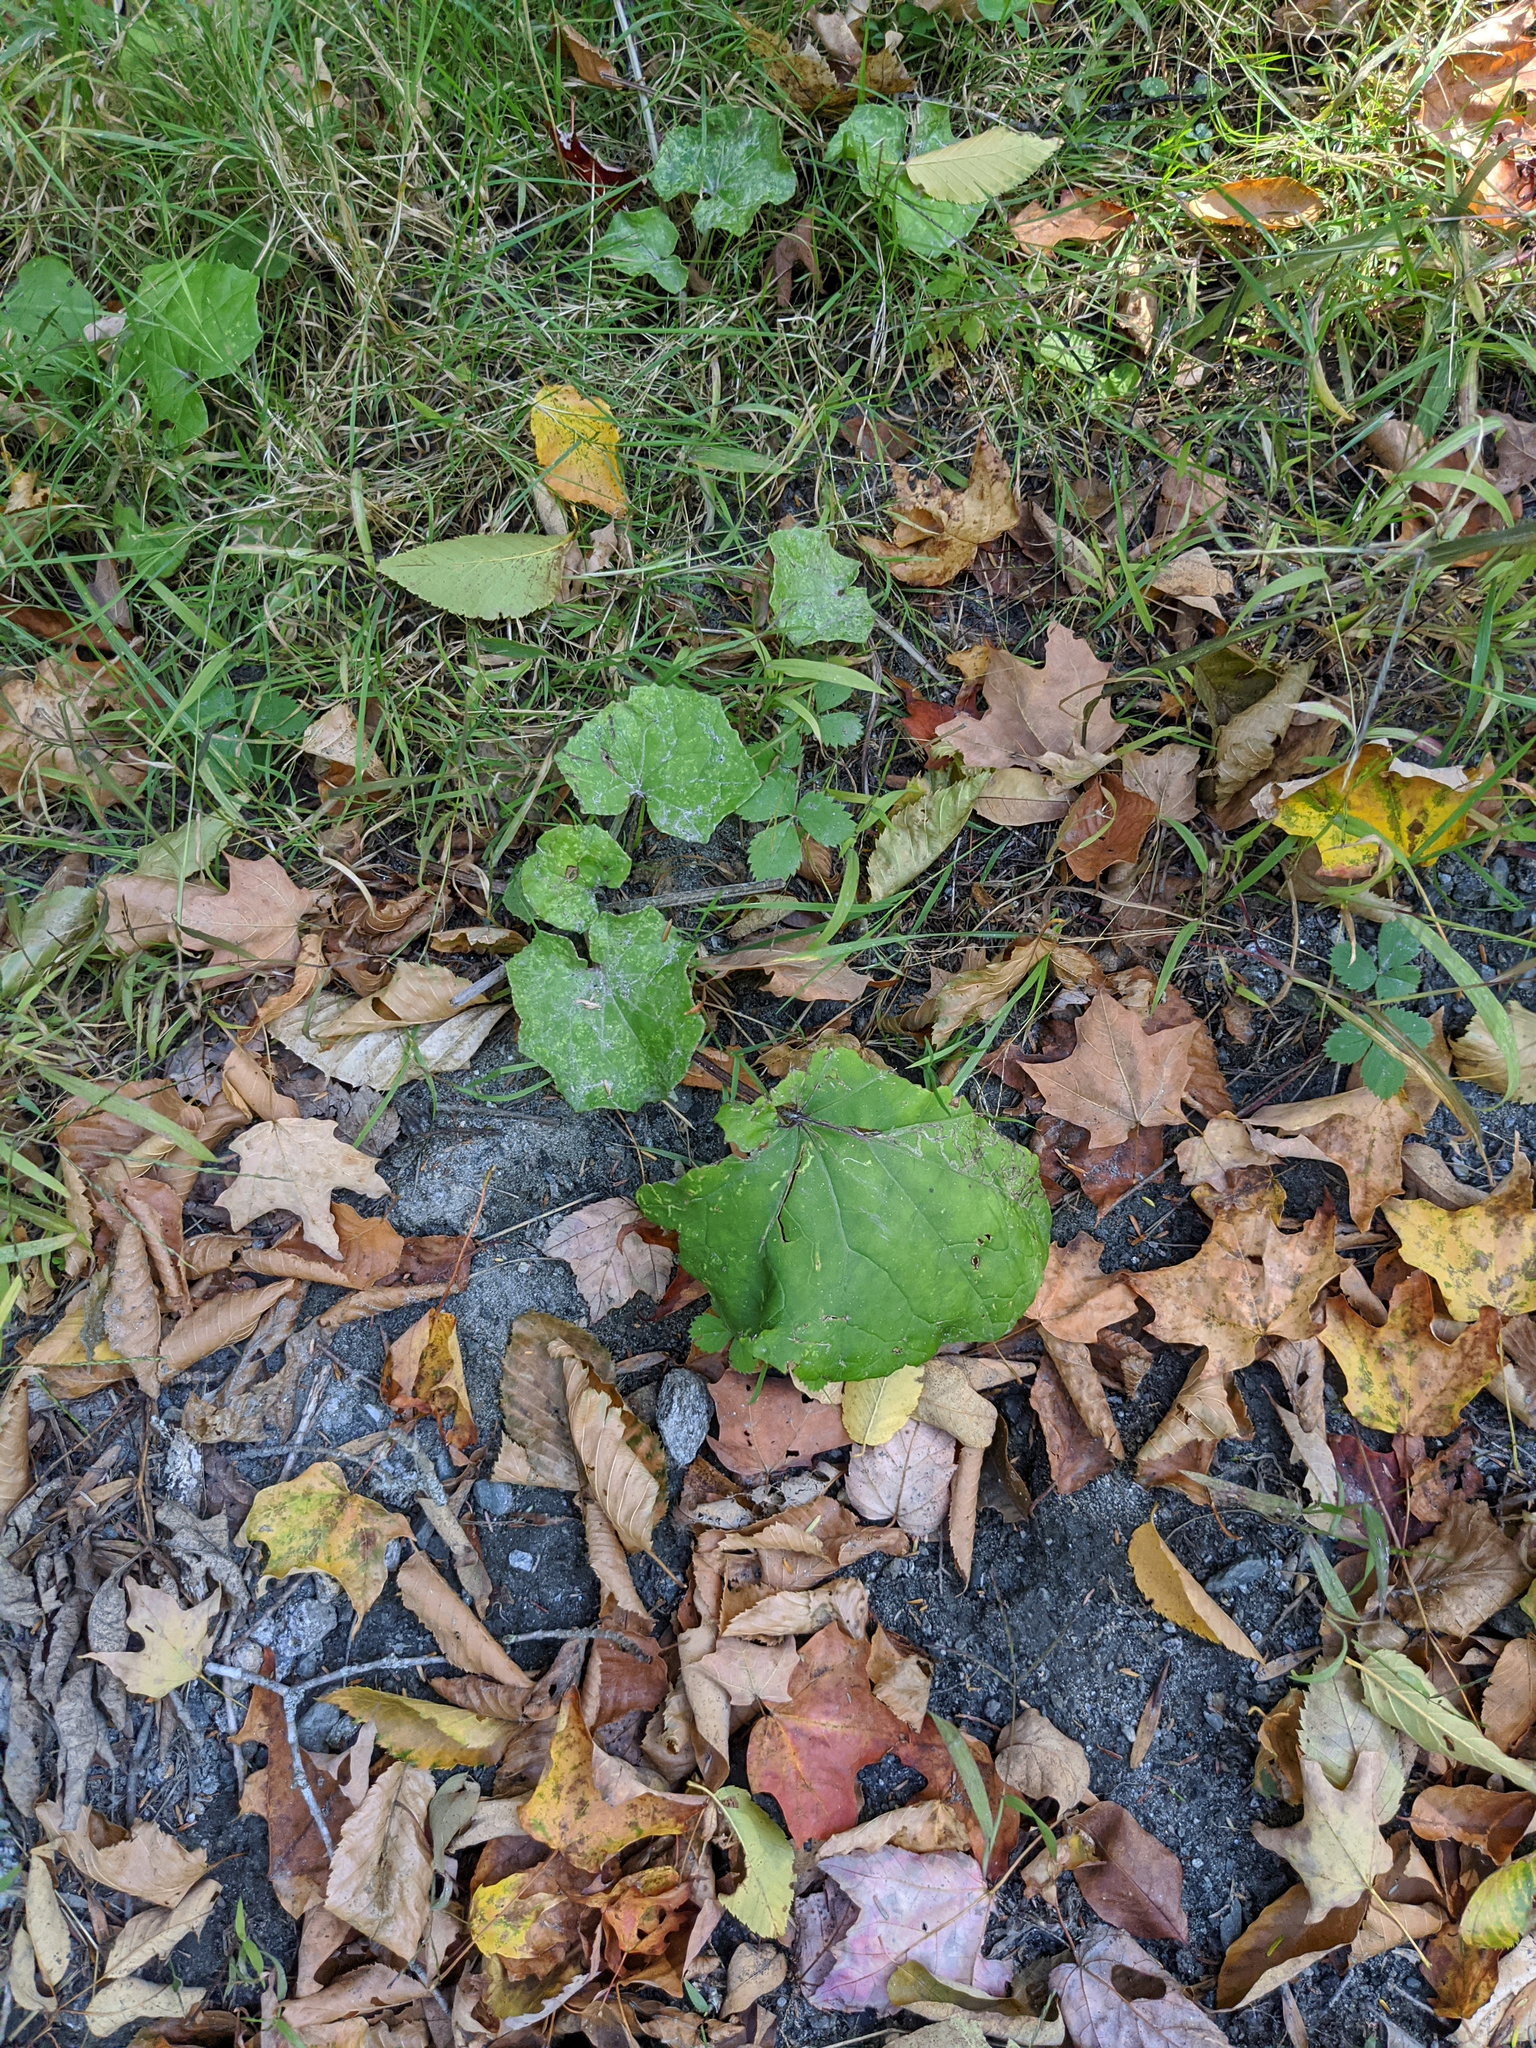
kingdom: Plantae
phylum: Tracheophyta
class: Magnoliopsida
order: Asterales
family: Asteraceae
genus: Tussilago
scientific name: Tussilago farfara
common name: Coltsfoot
